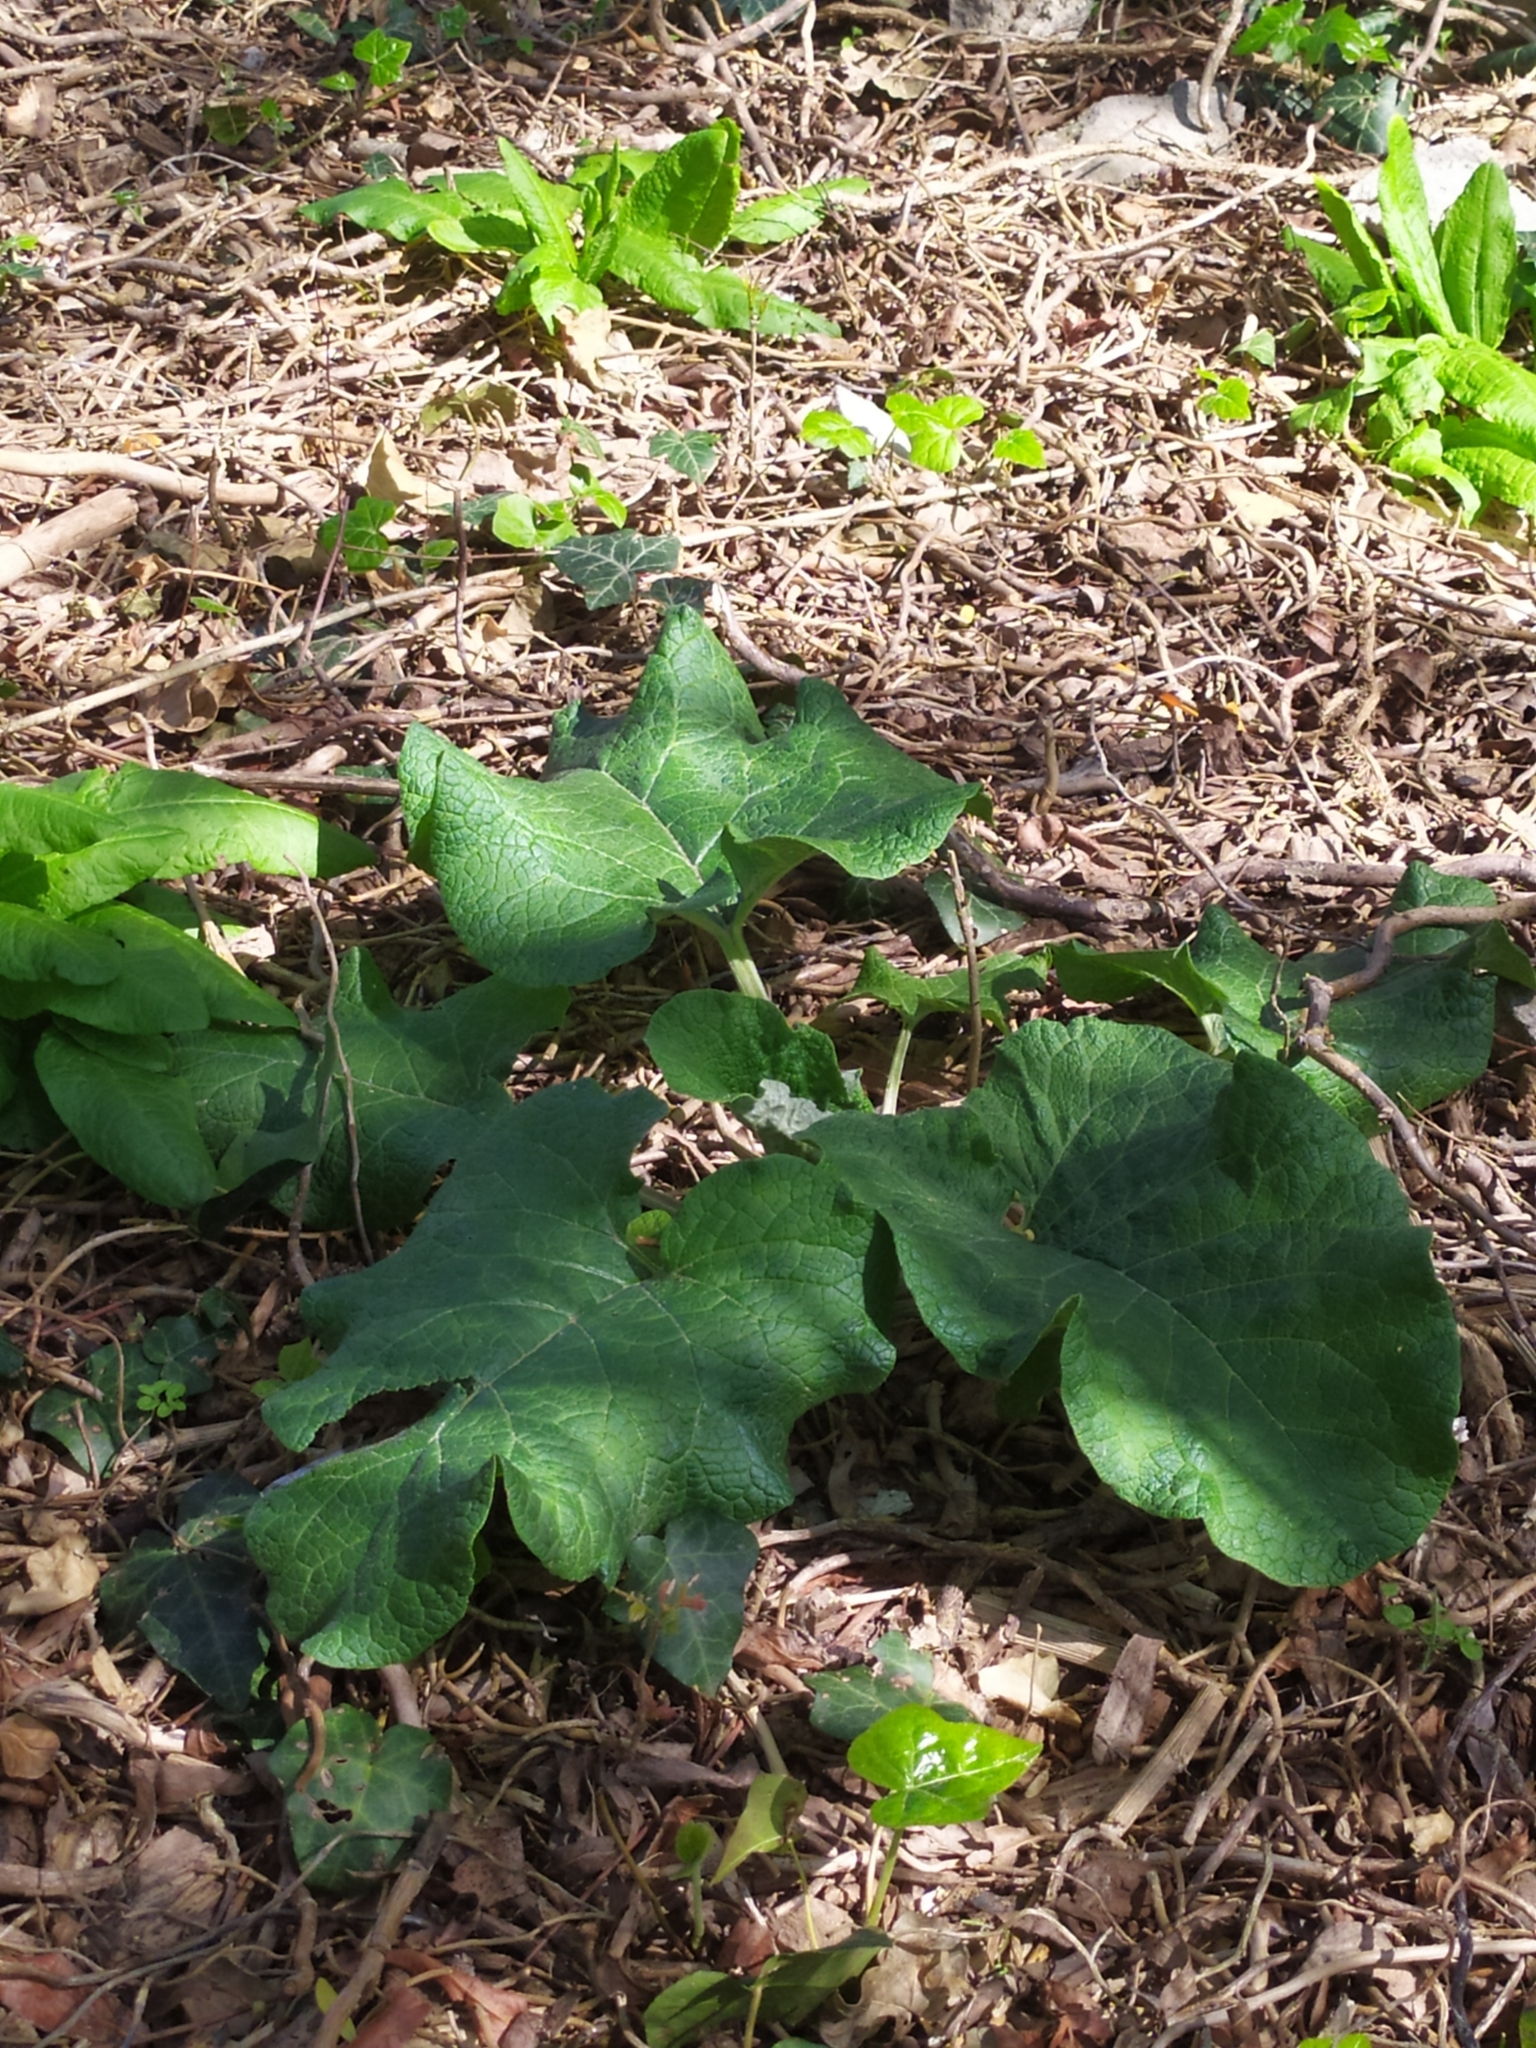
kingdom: Plantae
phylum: Tracheophyta
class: Magnoliopsida
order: Asterales
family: Asteraceae
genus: Arctium
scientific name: Arctium lappa
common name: Greater burdock
